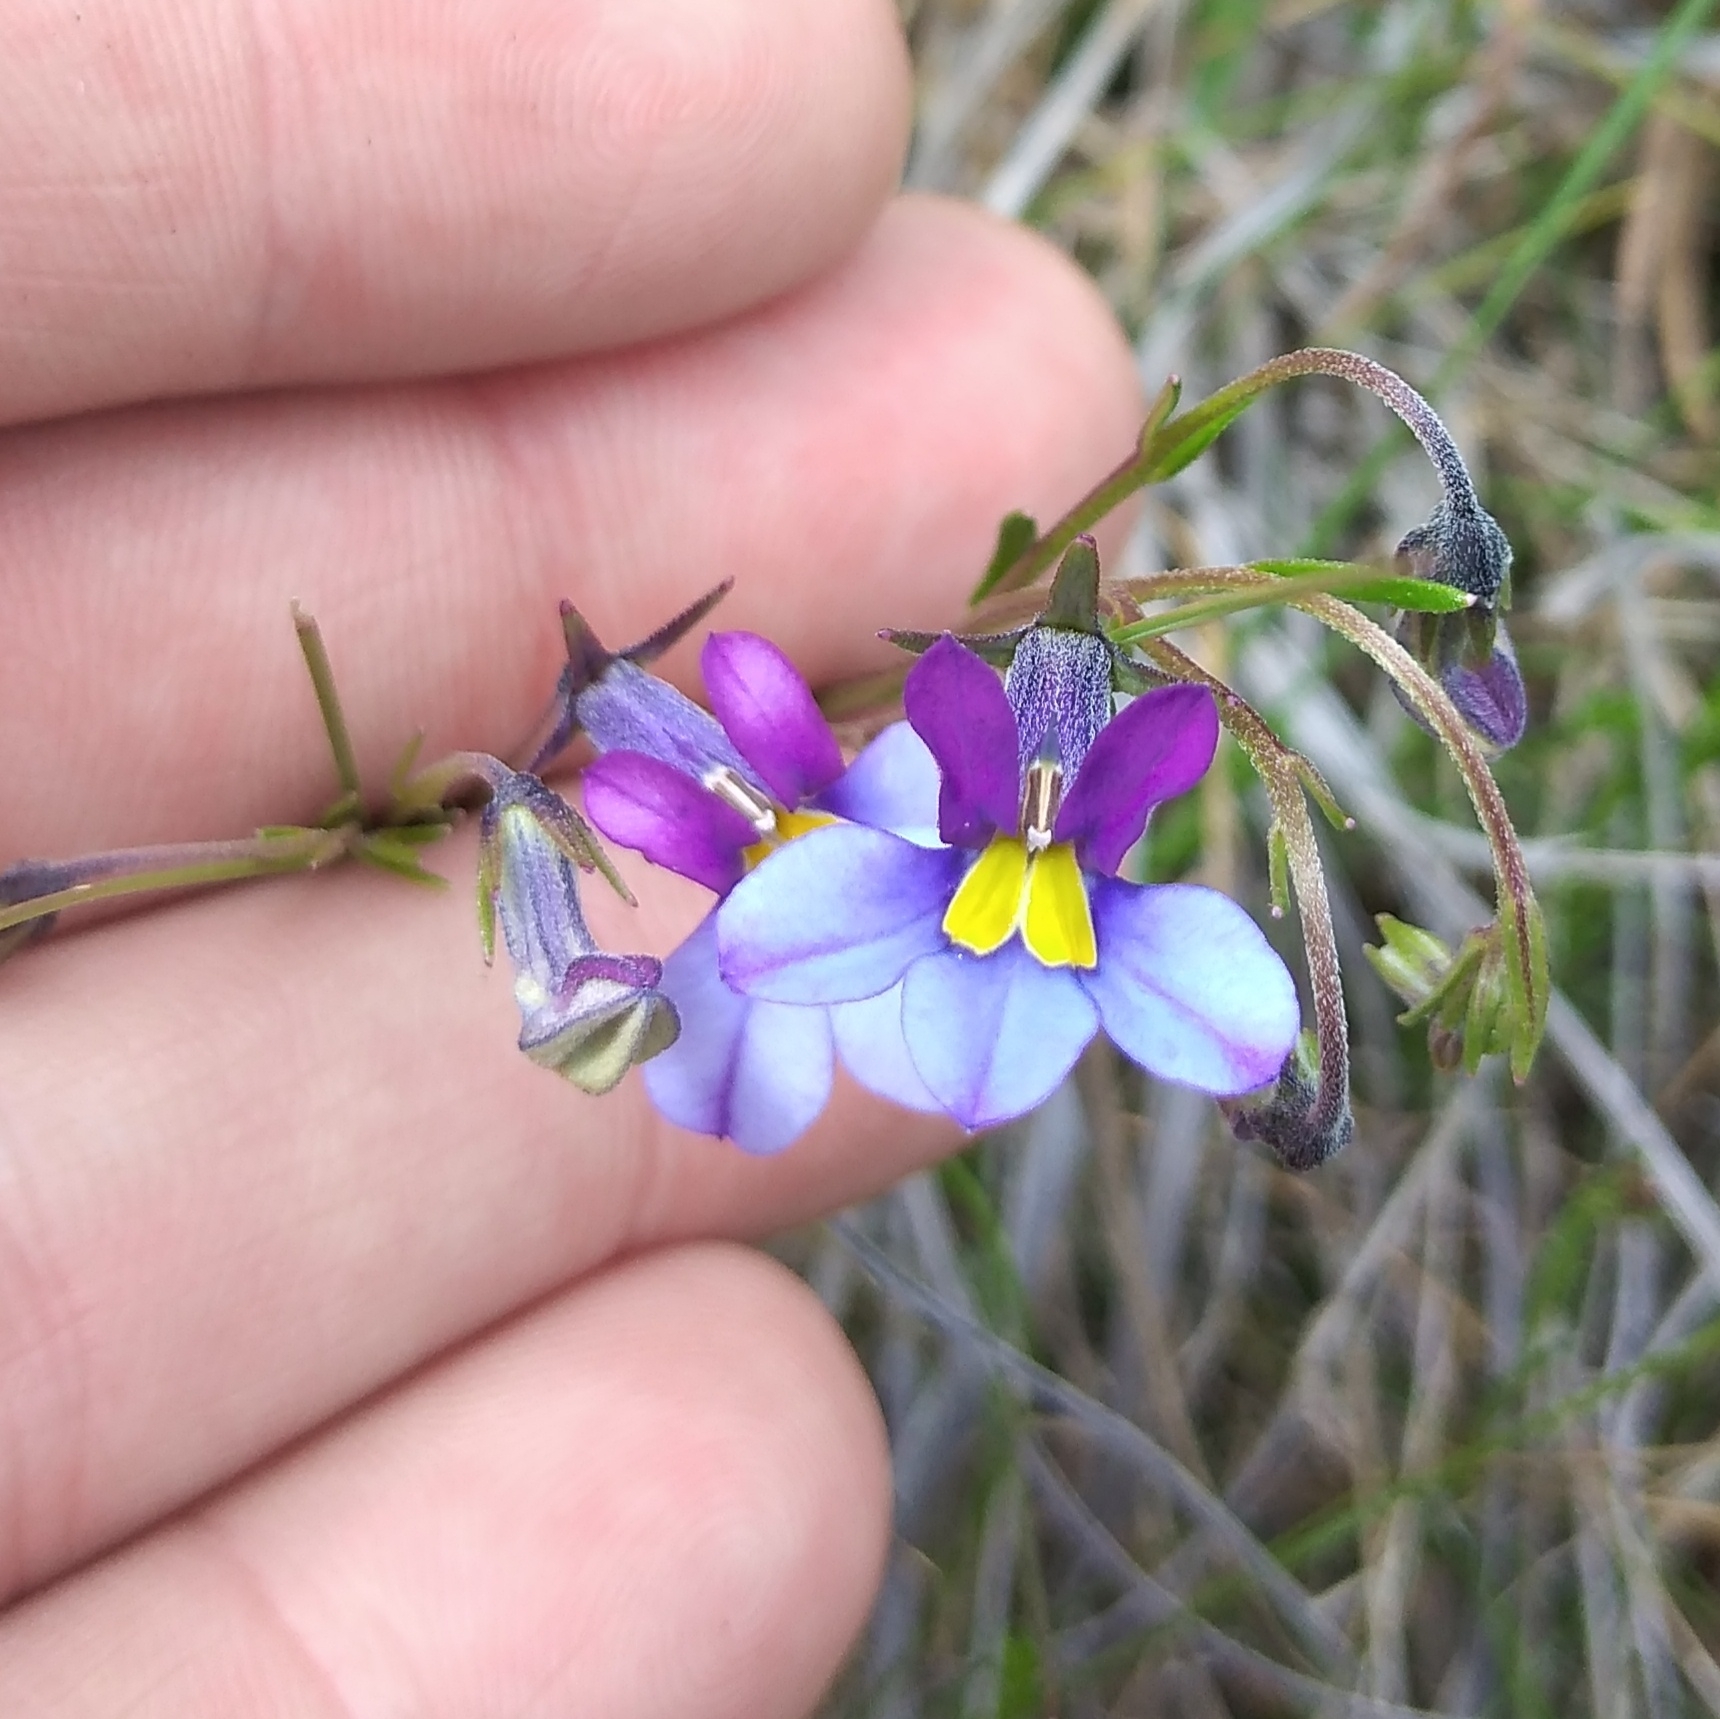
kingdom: Plantae
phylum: Tracheophyta
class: Magnoliopsida
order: Asterales
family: Campanulaceae
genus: Monopsis
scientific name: Monopsis decipiens
